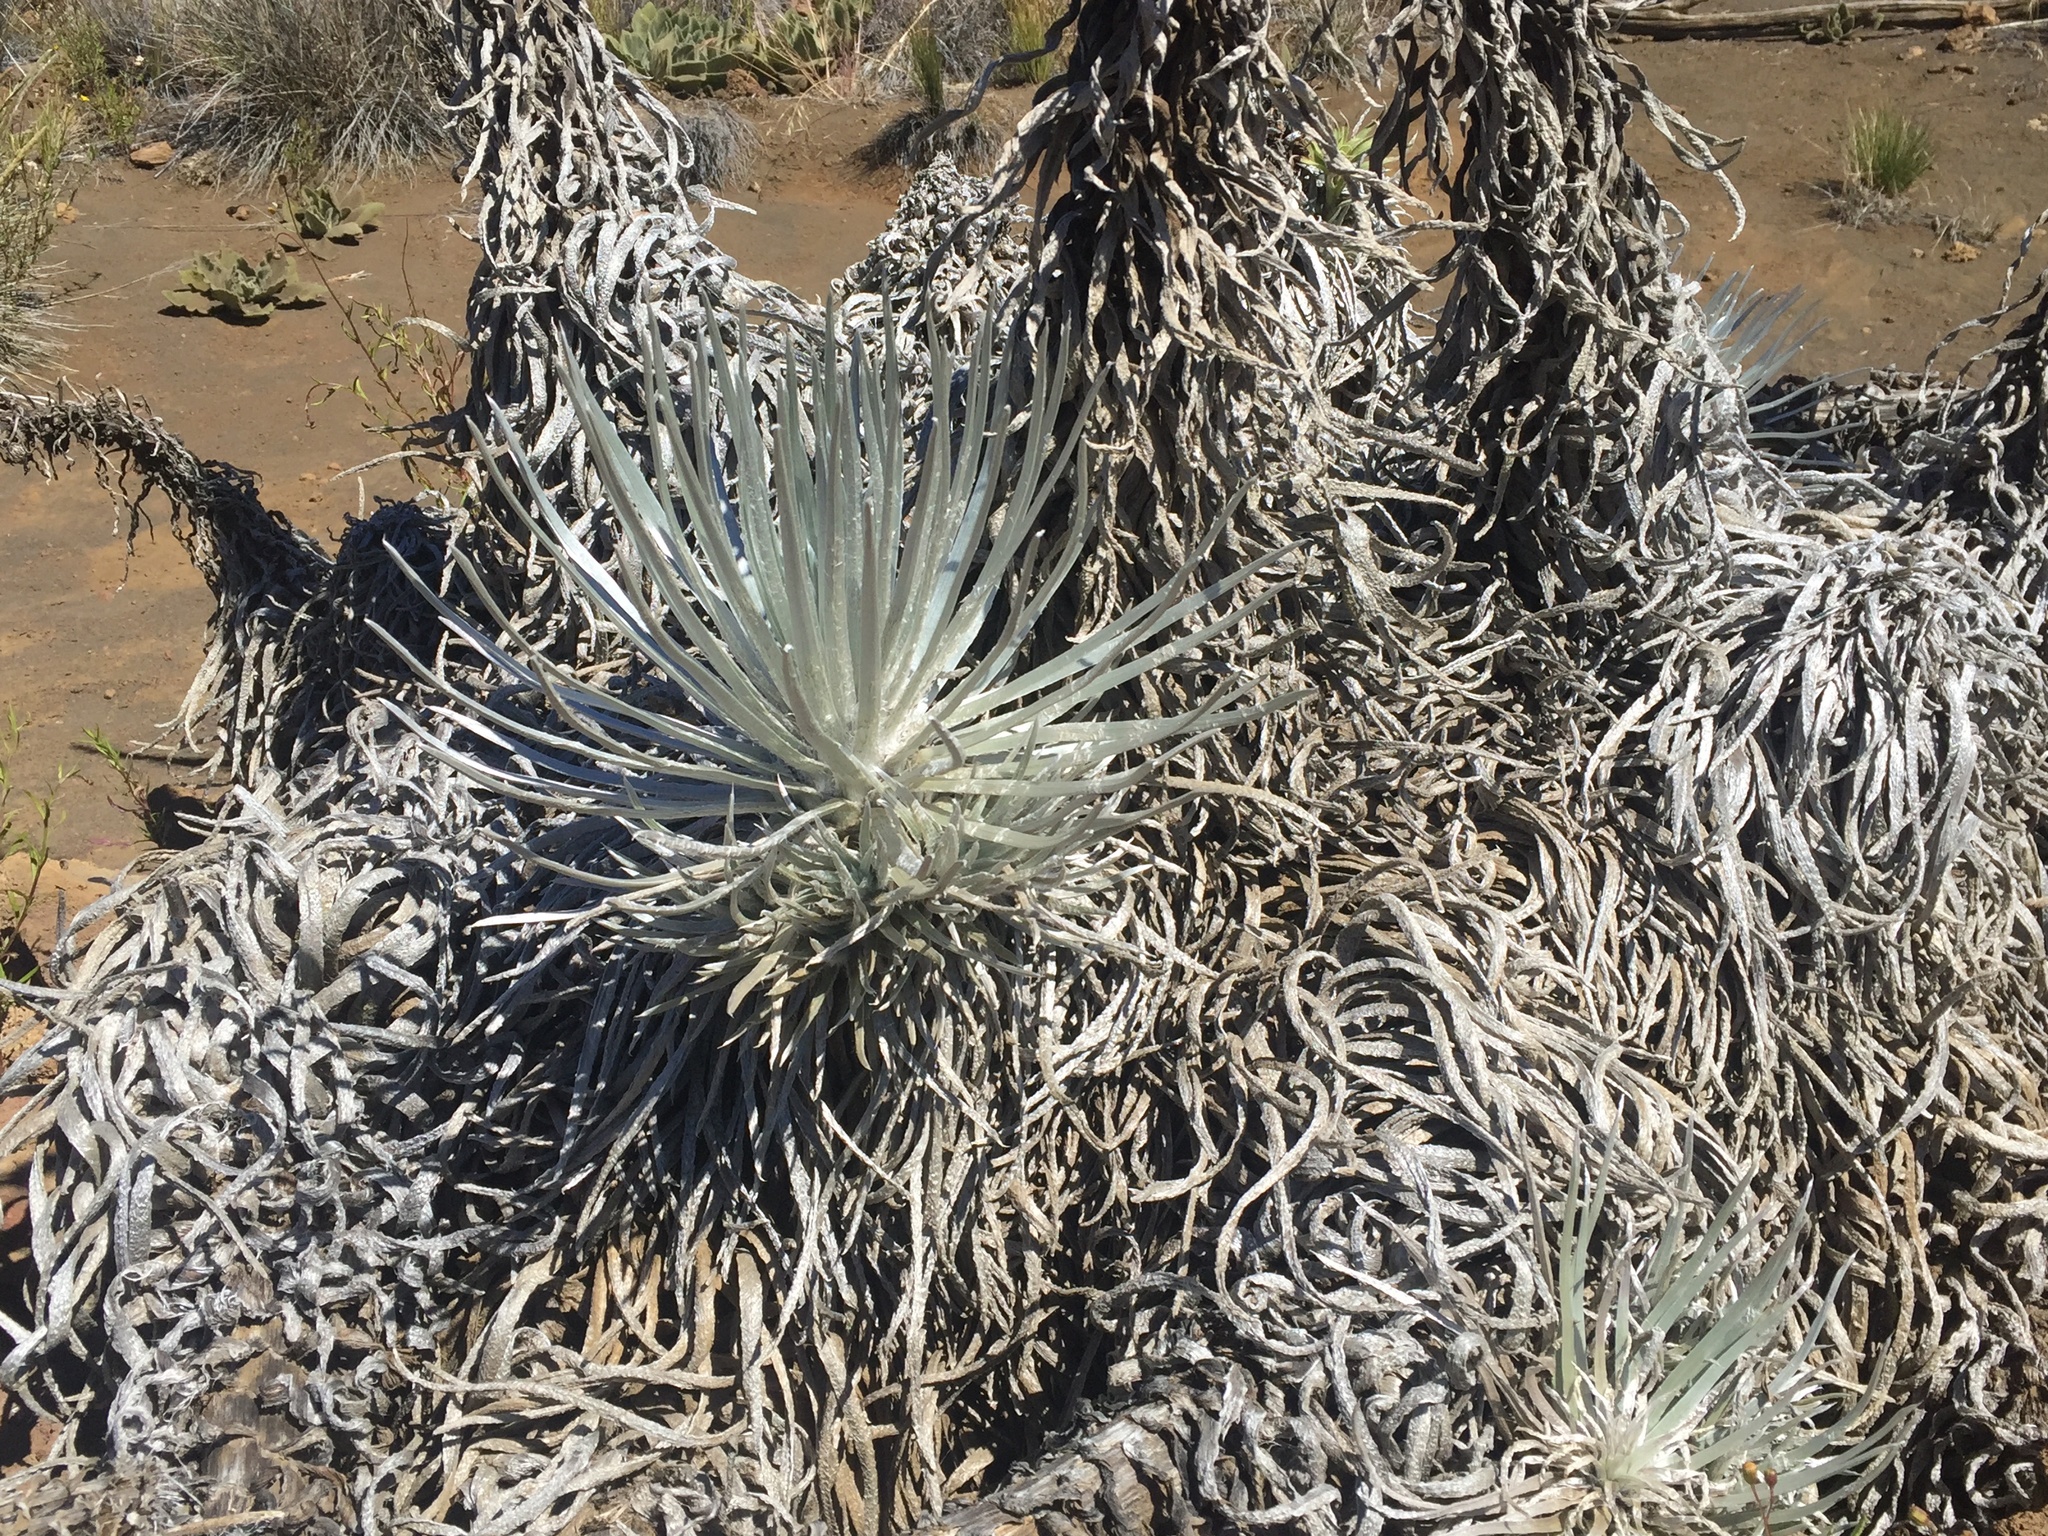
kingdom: Plantae
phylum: Tracheophyta
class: Magnoliopsida
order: Asterales
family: Asteraceae
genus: Argyroxiphium
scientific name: Argyroxiphium sandwicense
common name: Silversword
